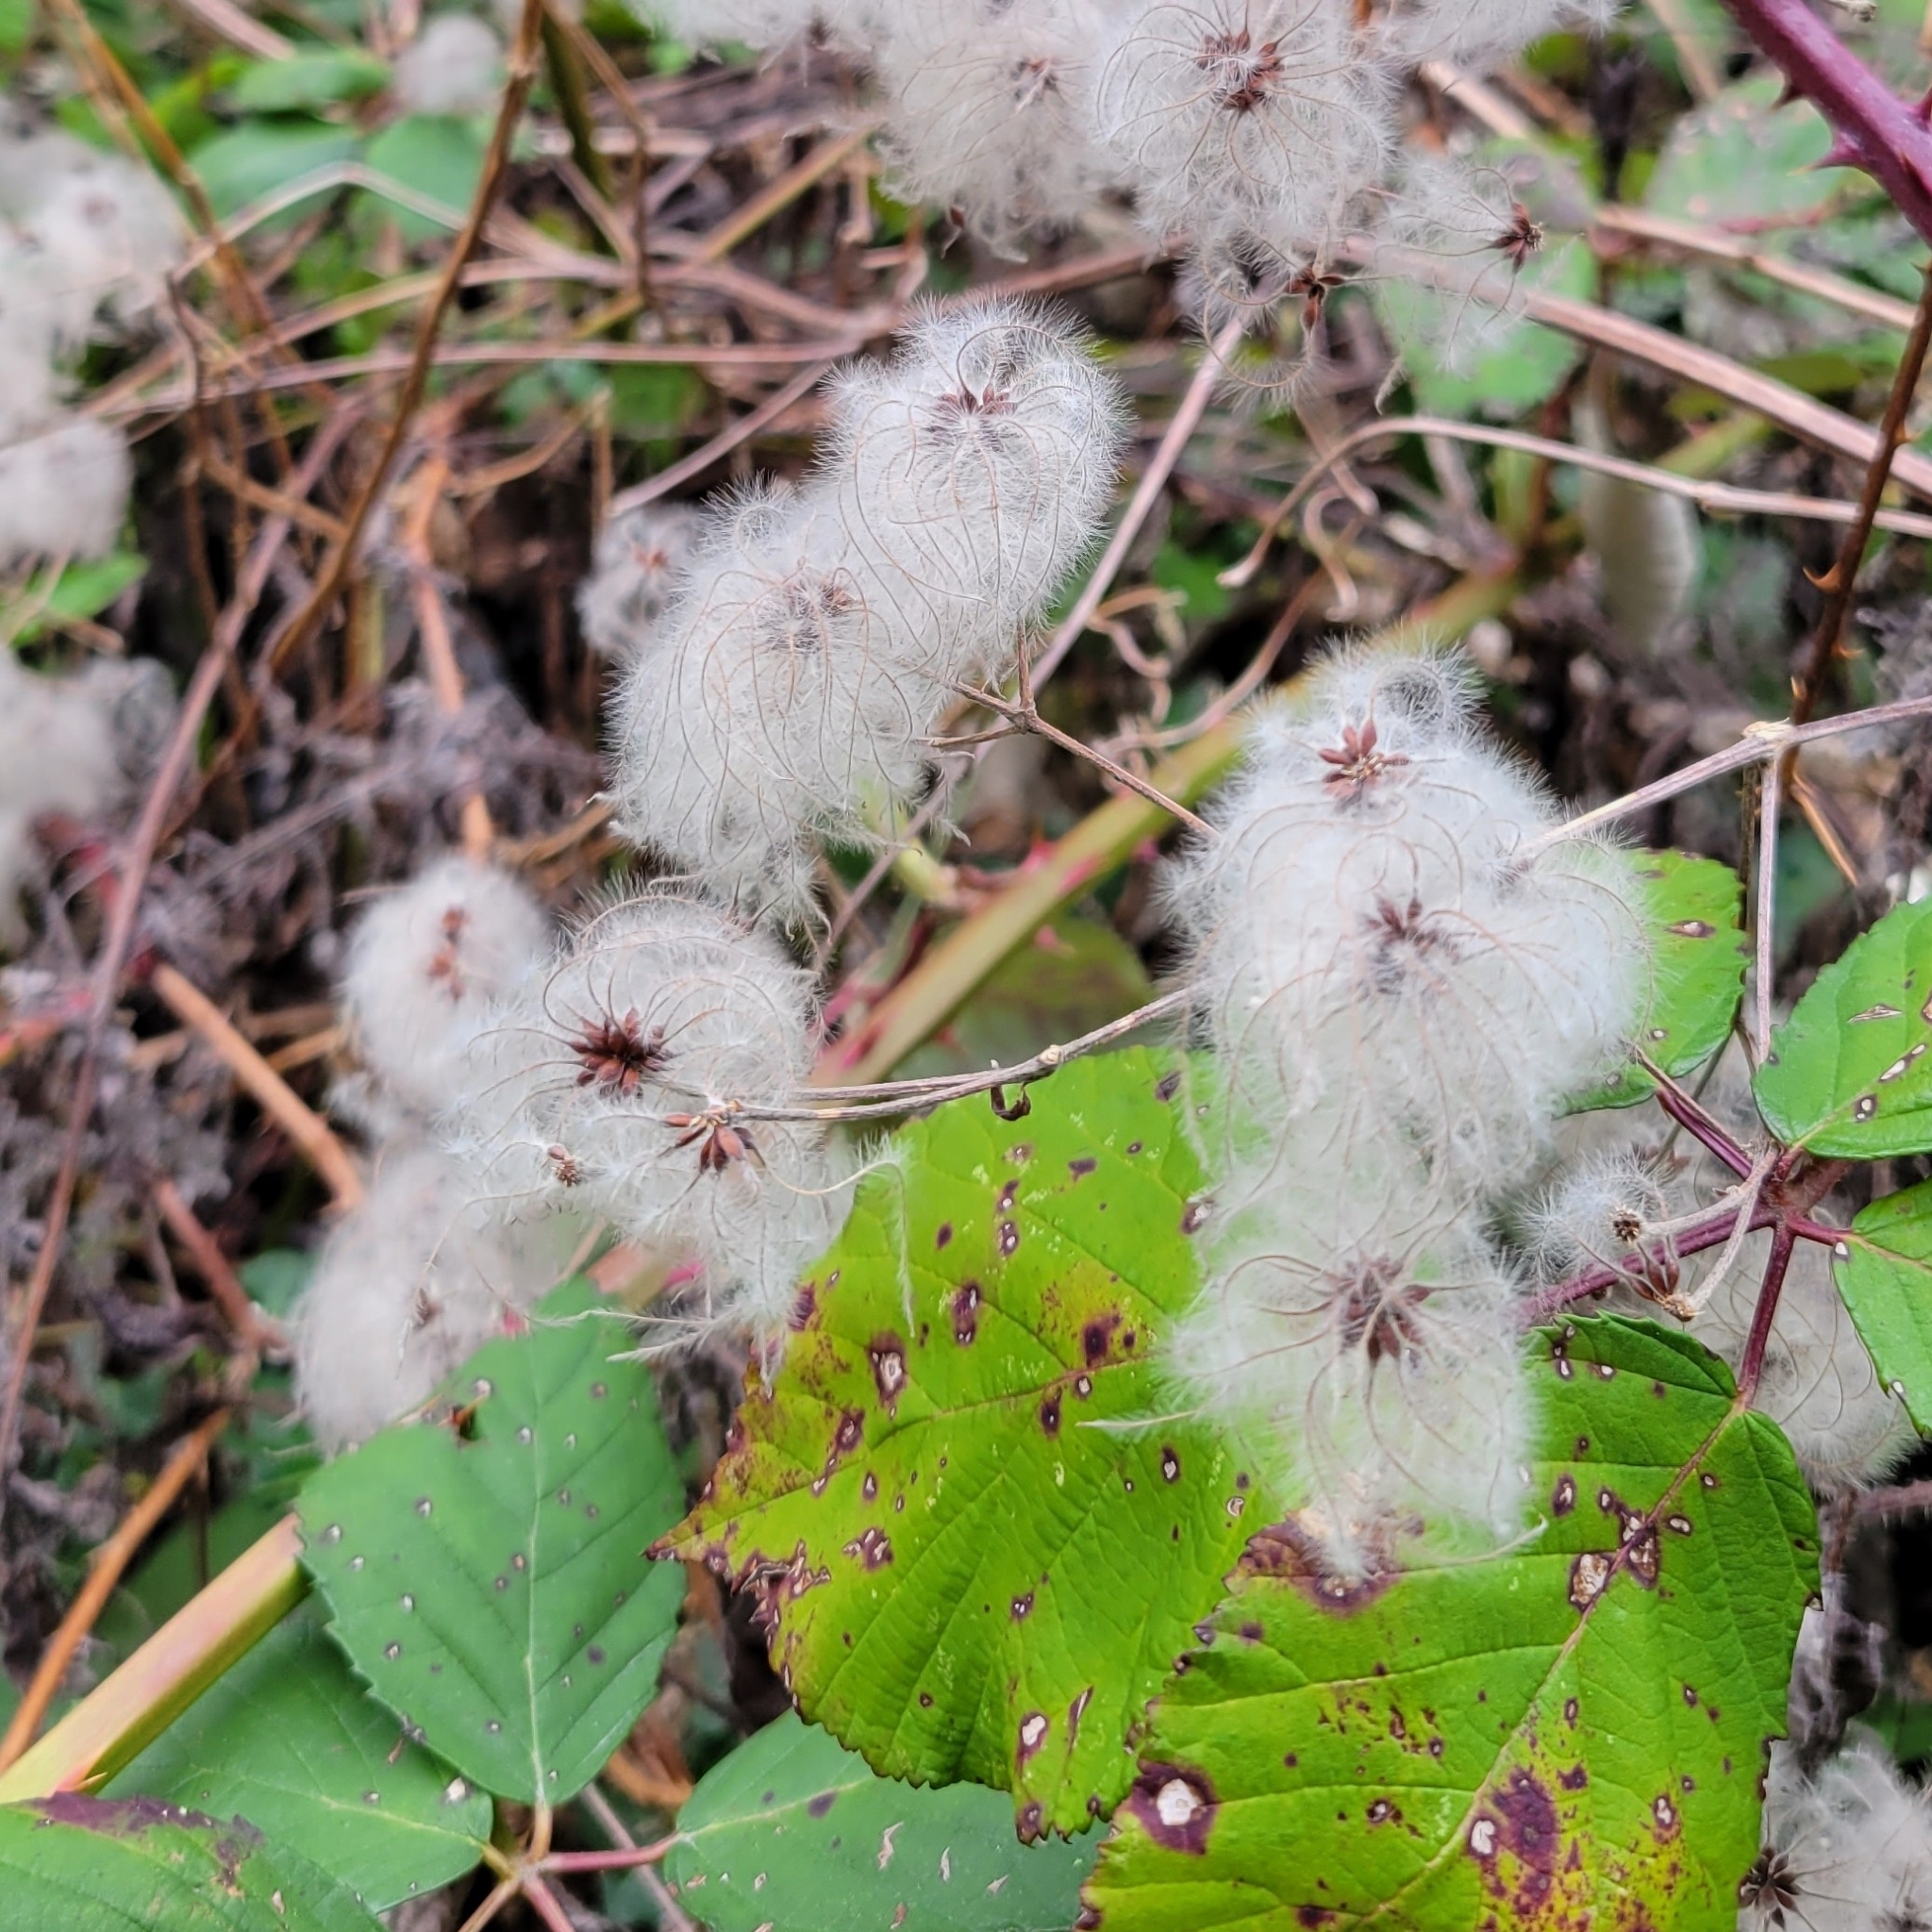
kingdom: Plantae
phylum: Tracheophyta
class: Magnoliopsida
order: Ranunculales
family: Ranunculaceae
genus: Clematis
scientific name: Clematis vitalba
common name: Evergreen clematis
